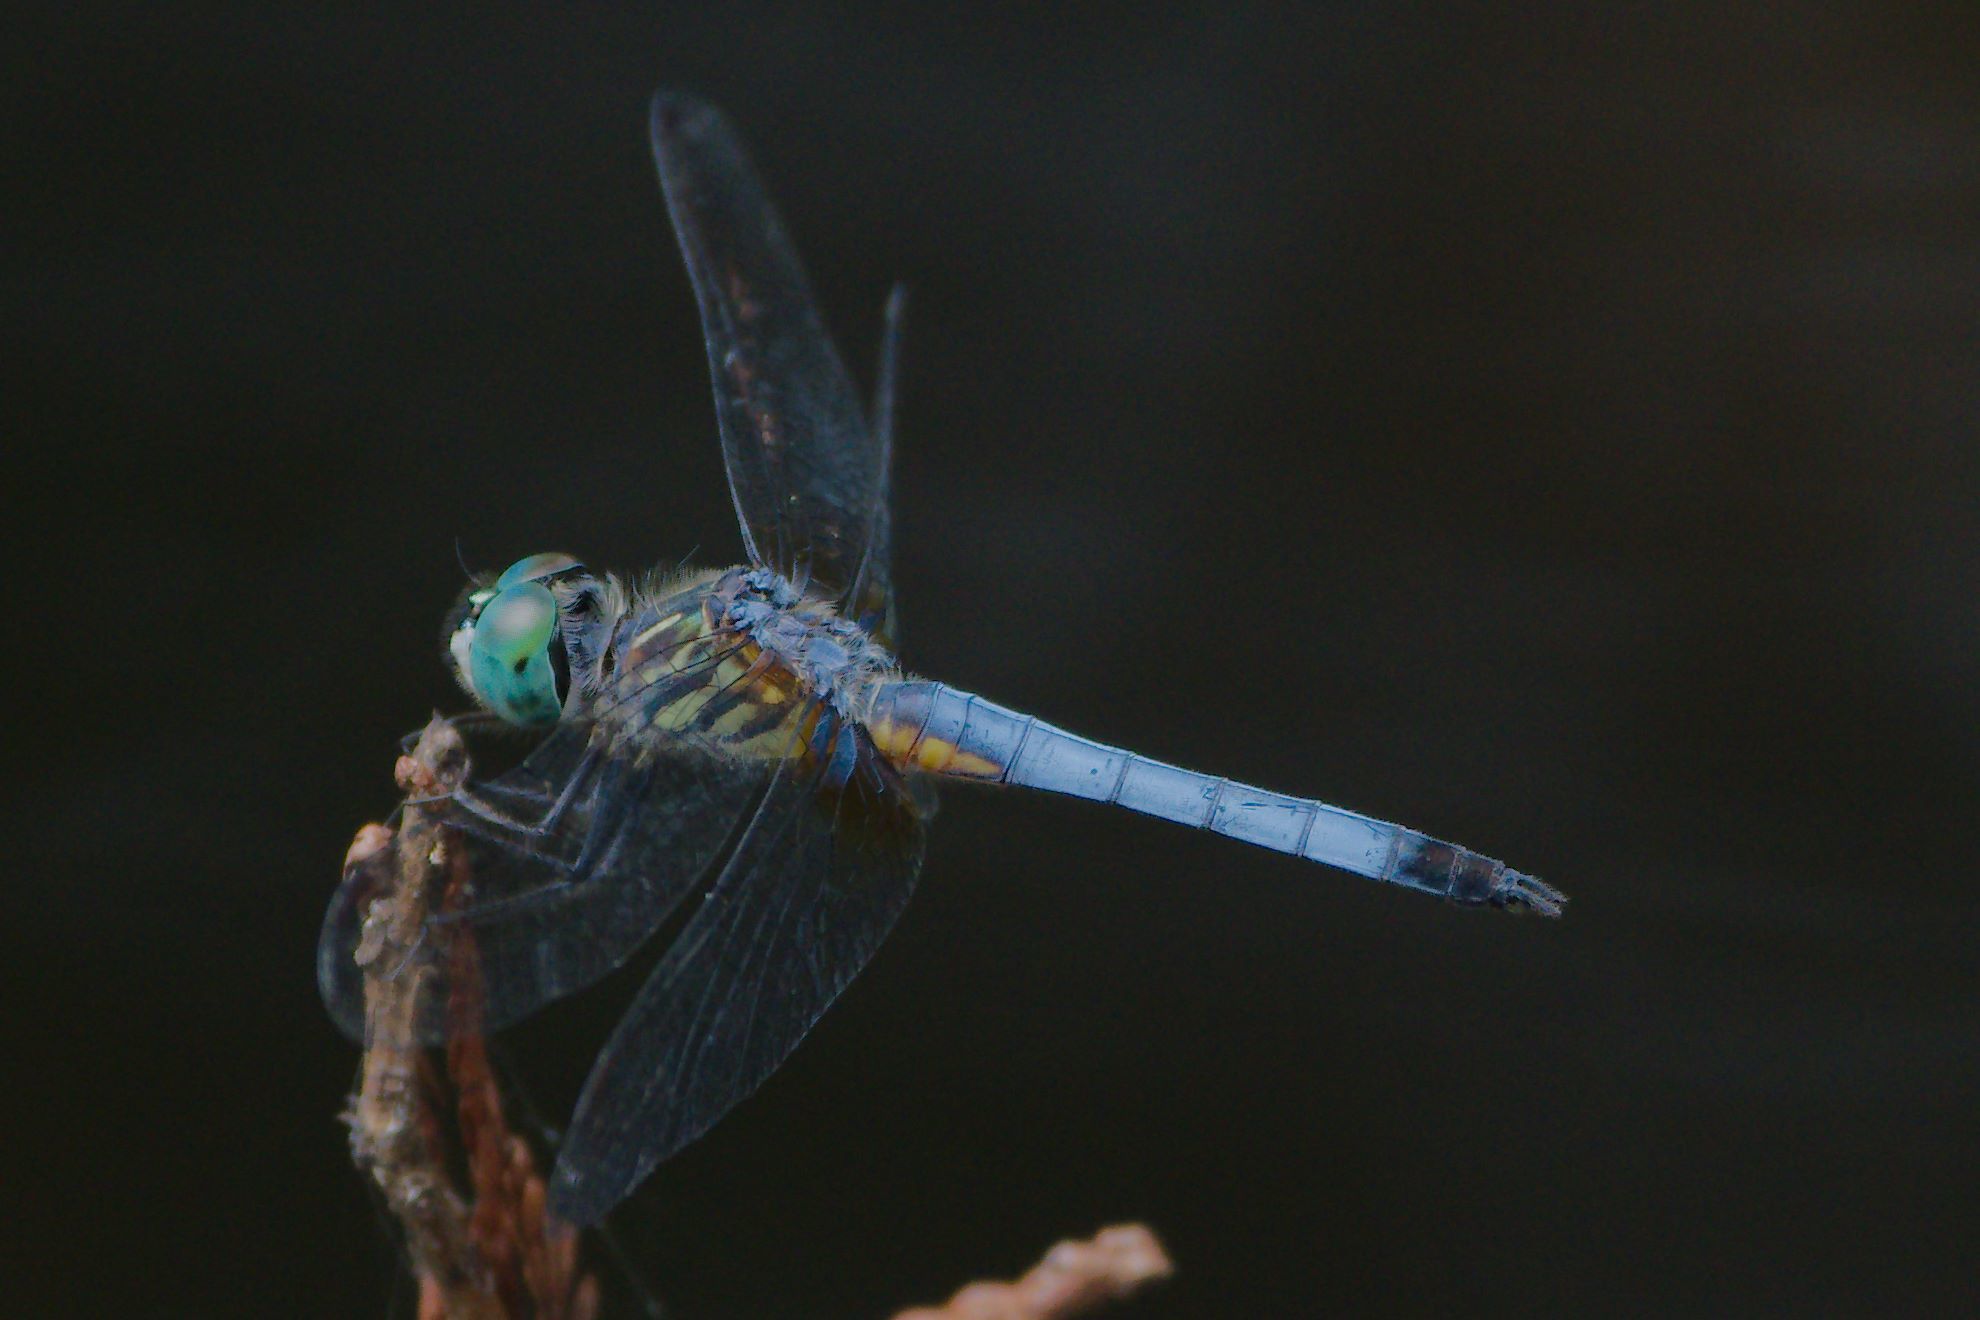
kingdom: Animalia
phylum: Arthropoda
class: Insecta
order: Odonata
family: Libellulidae
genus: Pachydiplax
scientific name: Pachydiplax longipennis
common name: Blue dasher
